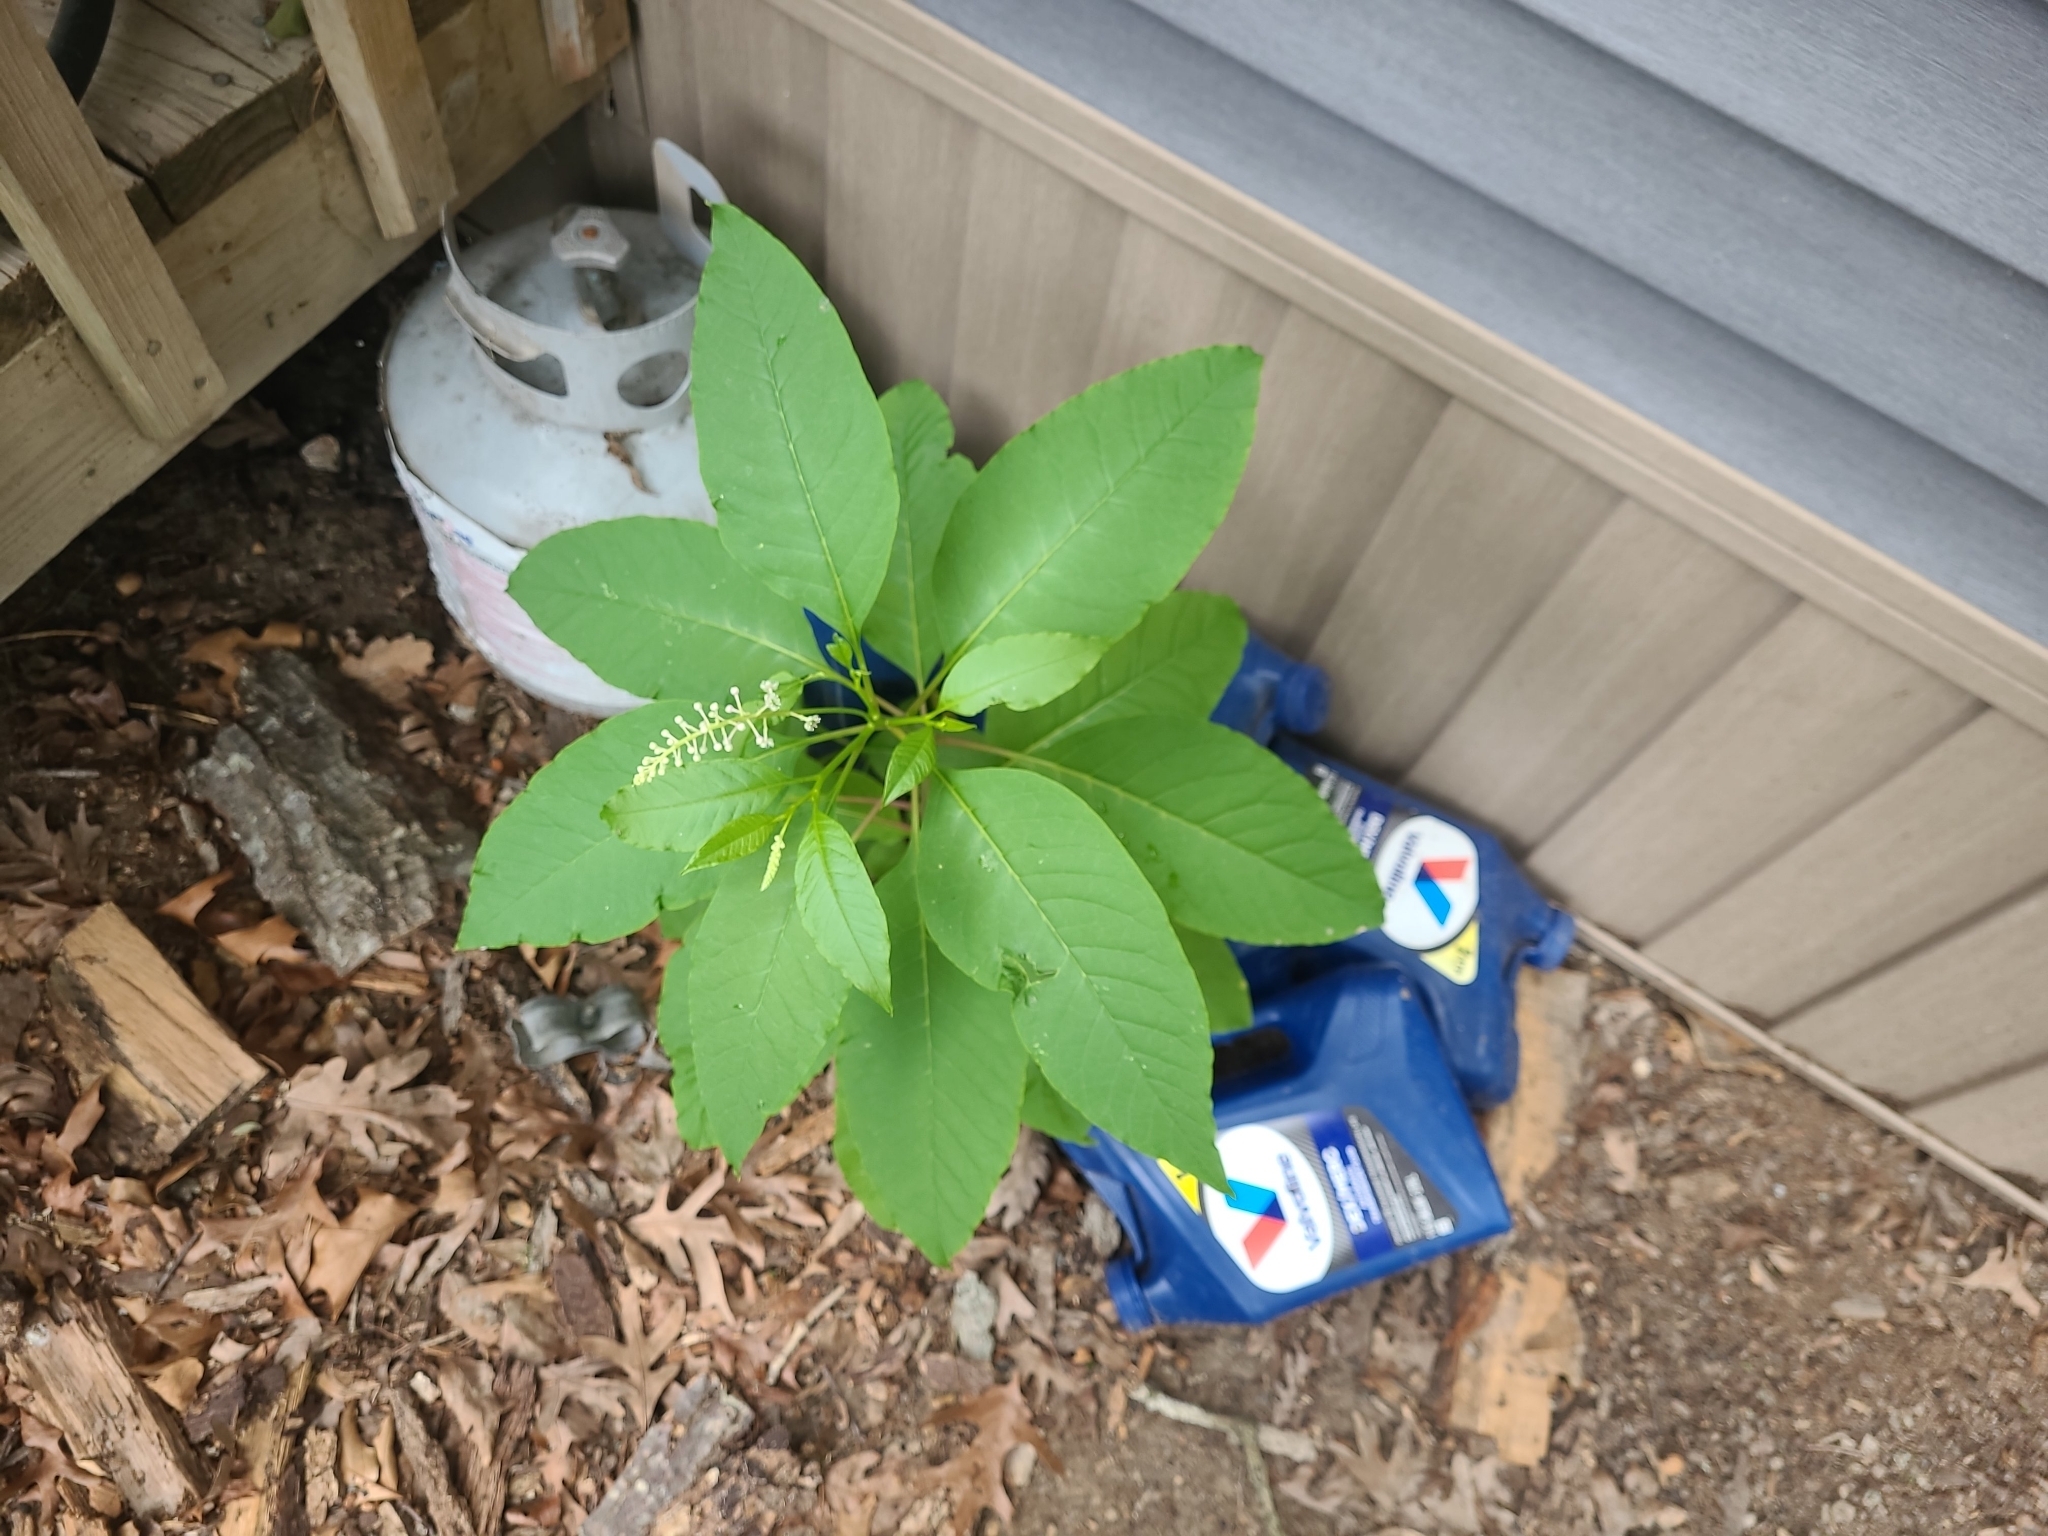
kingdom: Plantae
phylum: Tracheophyta
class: Magnoliopsida
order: Caryophyllales
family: Phytolaccaceae
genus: Phytolacca
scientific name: Phytolacca americana
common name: American pokeweed
